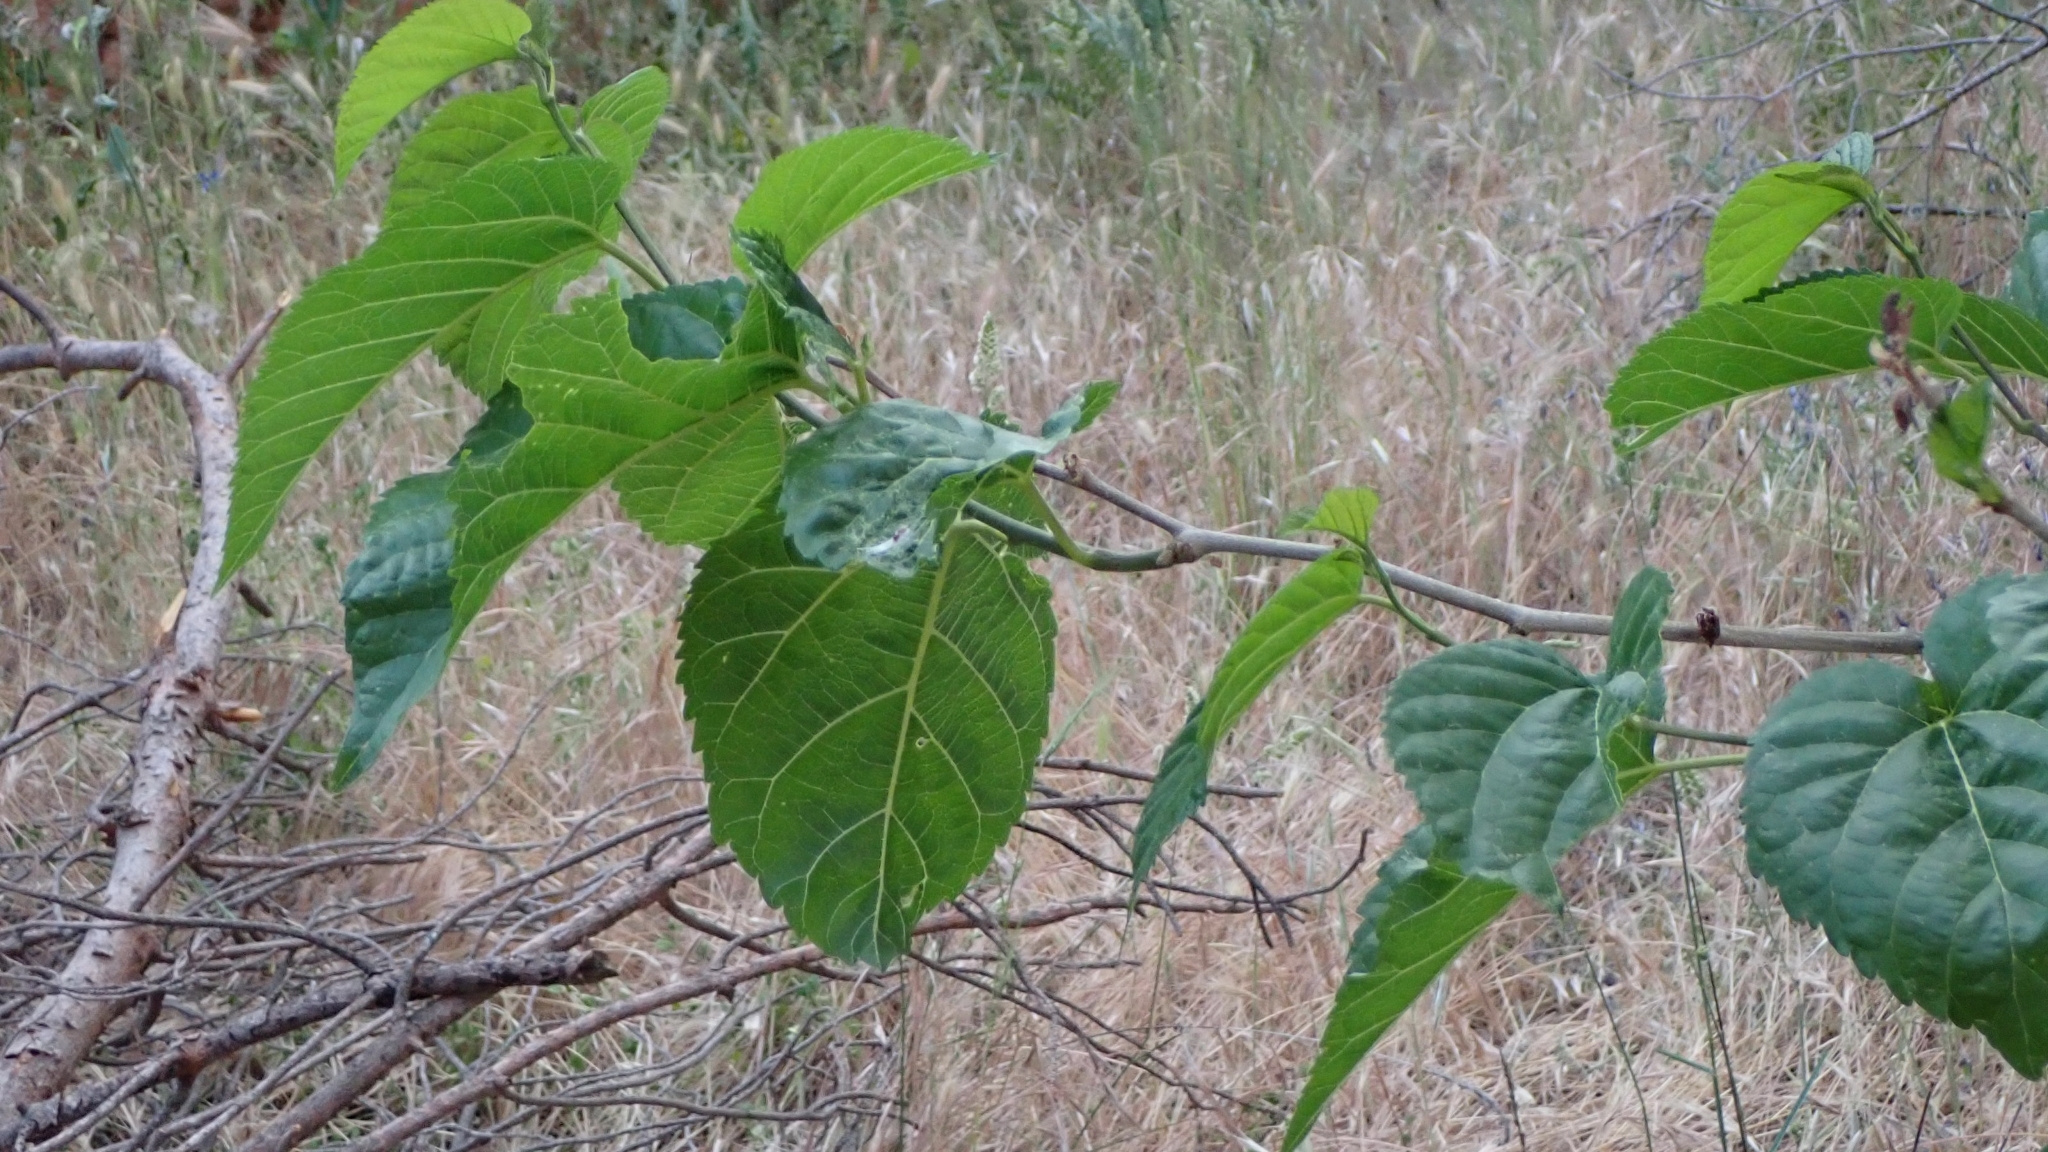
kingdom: Plantae
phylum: Tracheophyta
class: Magnoliopsida
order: Rosales
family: Moraceae
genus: Morus
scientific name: Morus alba
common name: White mulberry
